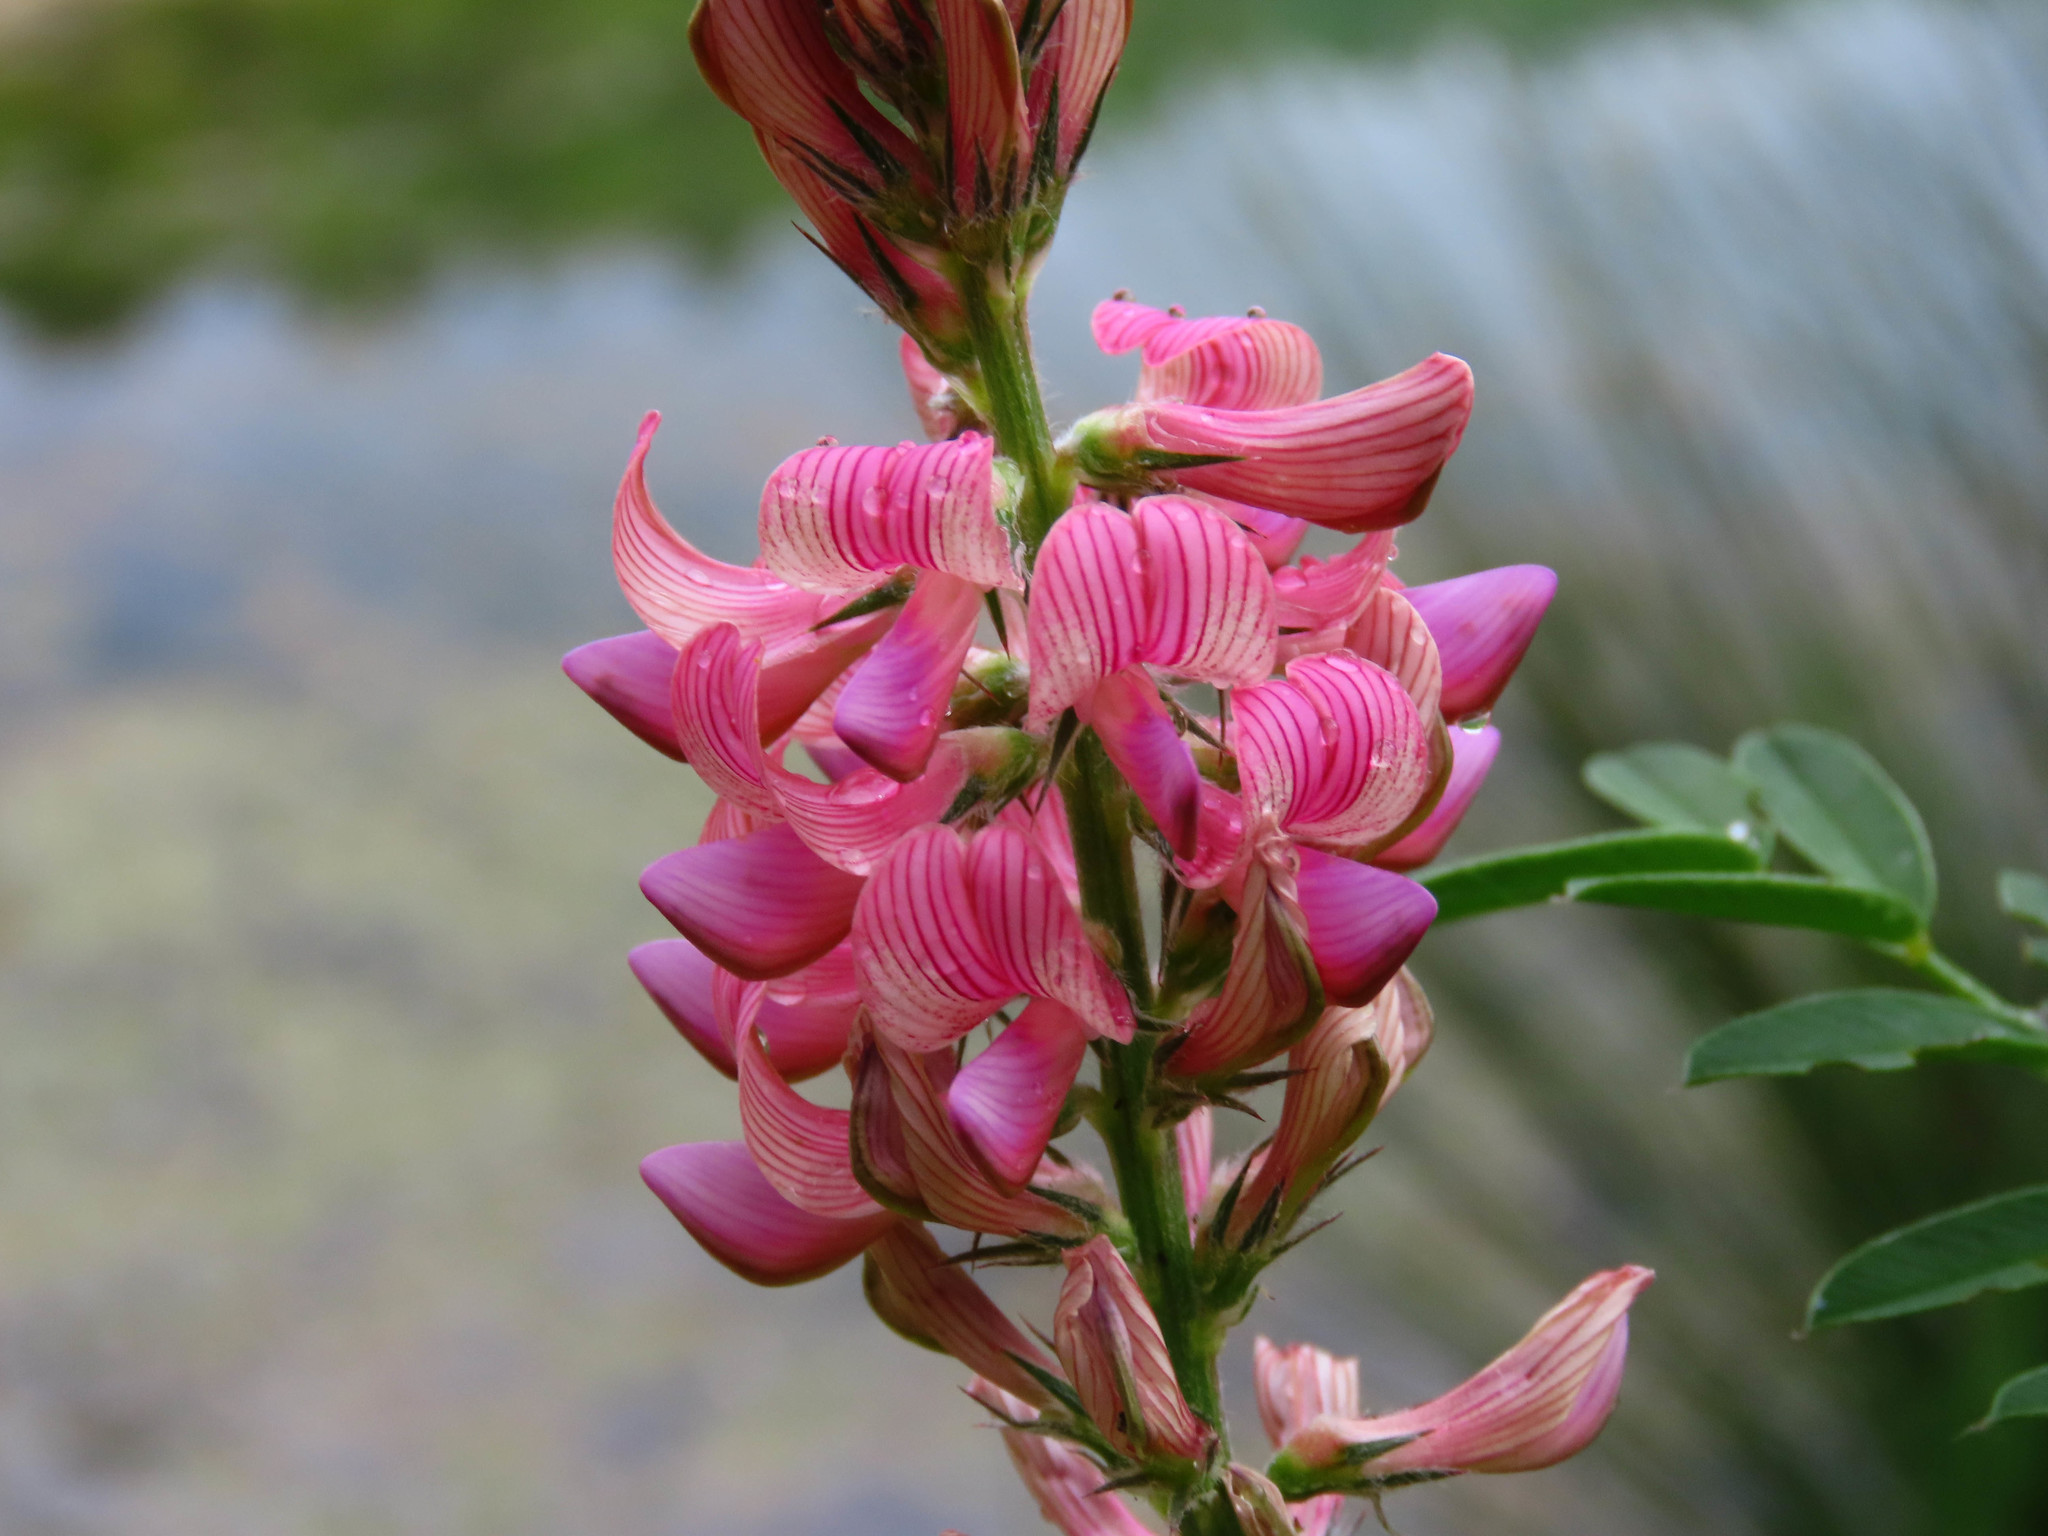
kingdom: Plantae
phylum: Tracheophyta
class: Magnoliopsida
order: Fabales
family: Fabaceae
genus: Onobrychis
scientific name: Onobrychis viciifolia
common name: Sainfoin
